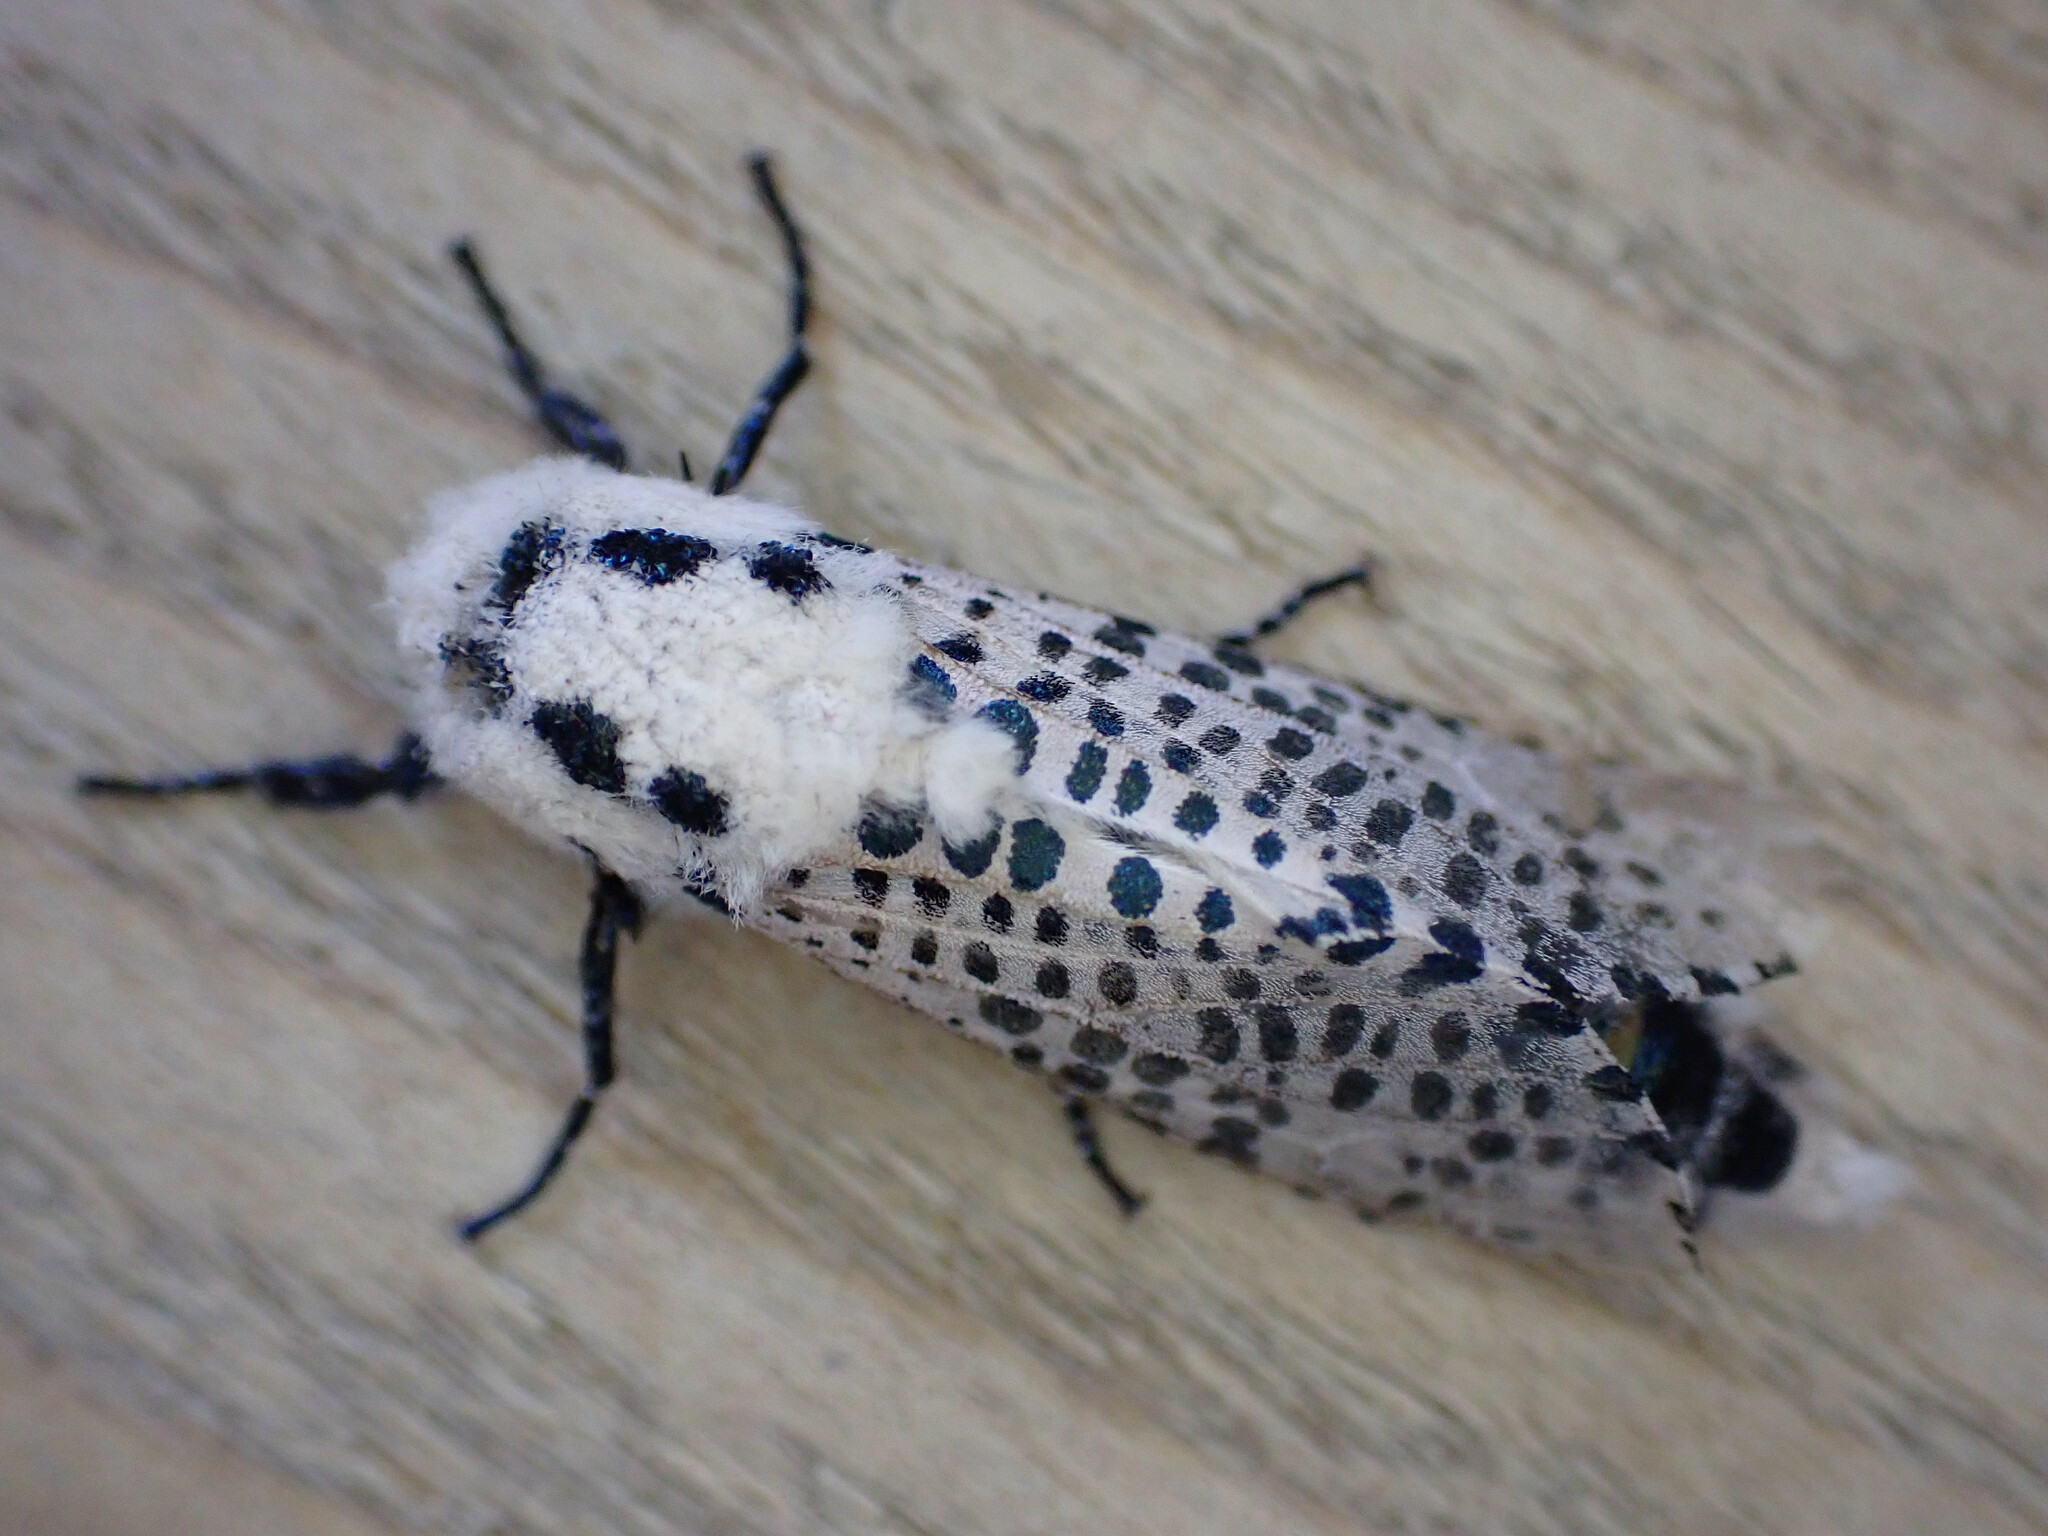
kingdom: Animalia
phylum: Arthropoda
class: Insecta
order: Lepidoptera
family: Cossidae
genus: Zeuzera
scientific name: Zeuzera pyrina
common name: Leopard moth
